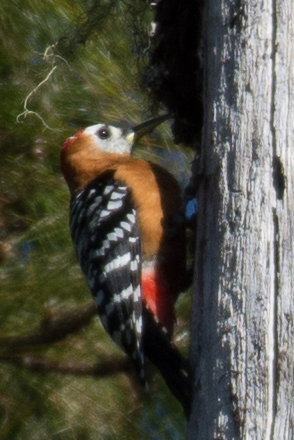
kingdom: Animalia
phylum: Chordata
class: Aves
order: Piciformes
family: Picidae
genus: Dendrocopos
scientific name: Dendrocopos hyperythrus
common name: Rufous-bellied woodpecker
